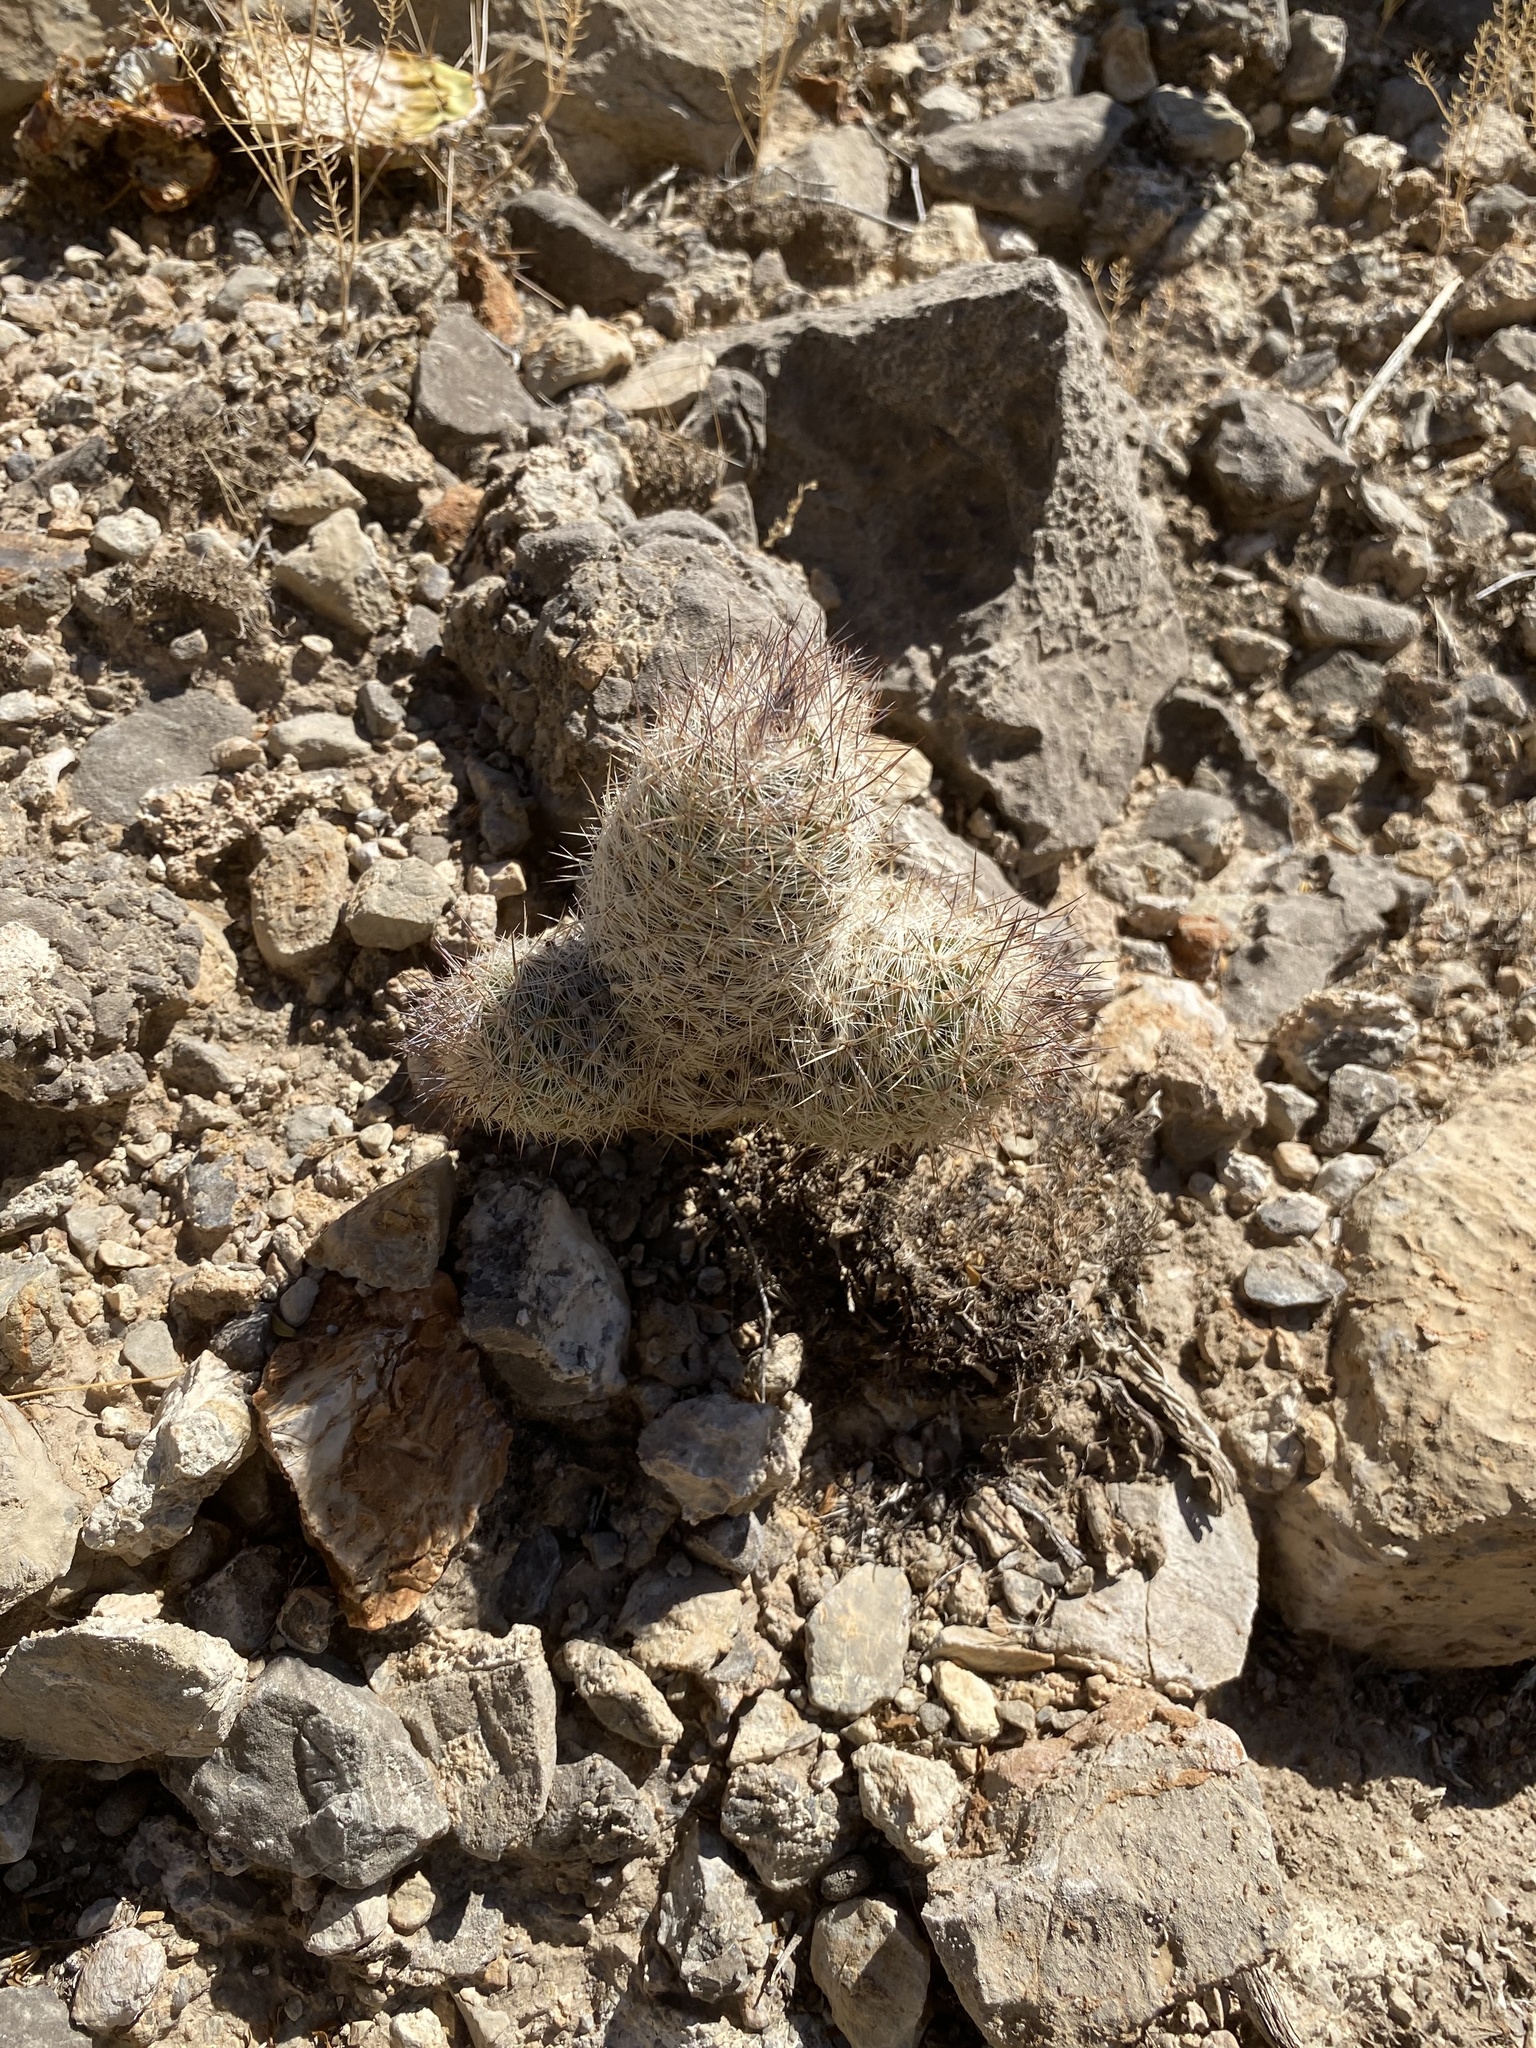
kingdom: Plantae
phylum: Tracheophyta
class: Magnoliopsida
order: Caryophyllales
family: Cactaceae
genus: Pelecyphora
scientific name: Pelecyphora tuberculosa
